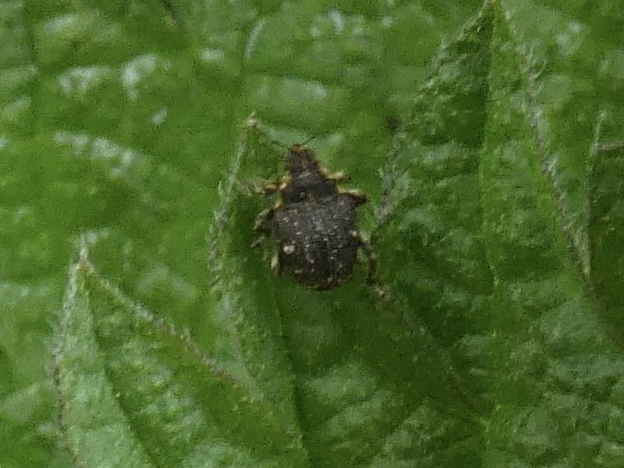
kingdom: Animalia
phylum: Arthropoda
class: Insecta
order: Coleoptera
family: Curculionidae
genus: Nedyus
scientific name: Nedyus quadrimaculatus
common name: Small nettle weevil
